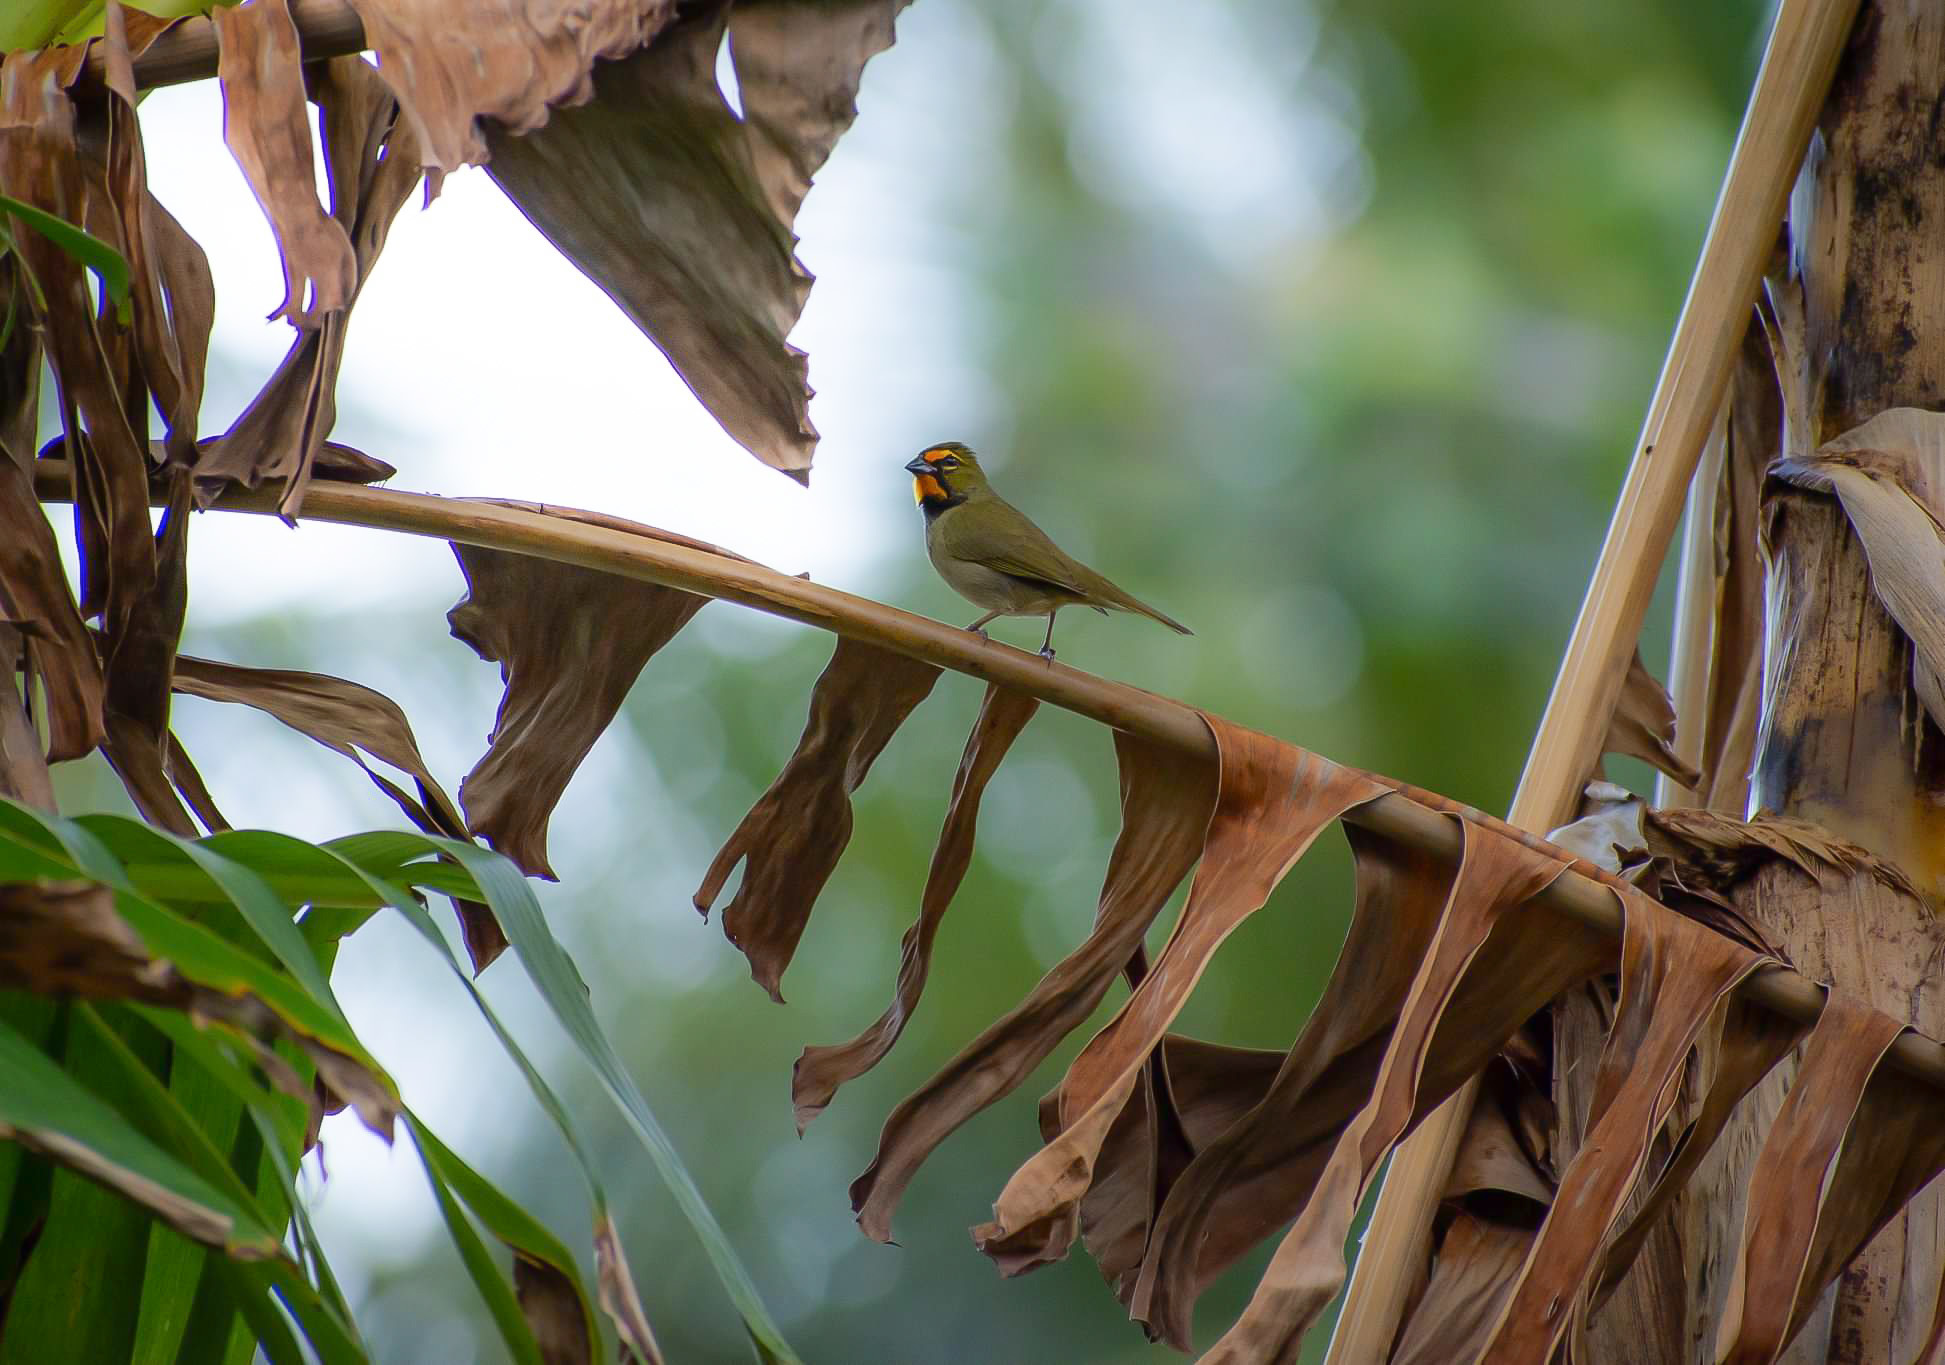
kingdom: Animalia
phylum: Chordata
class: Aves
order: Passeriformes
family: Thraupidae
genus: Tiaris
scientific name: Tiaris olivaceus
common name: Yellow-faced grassquit
